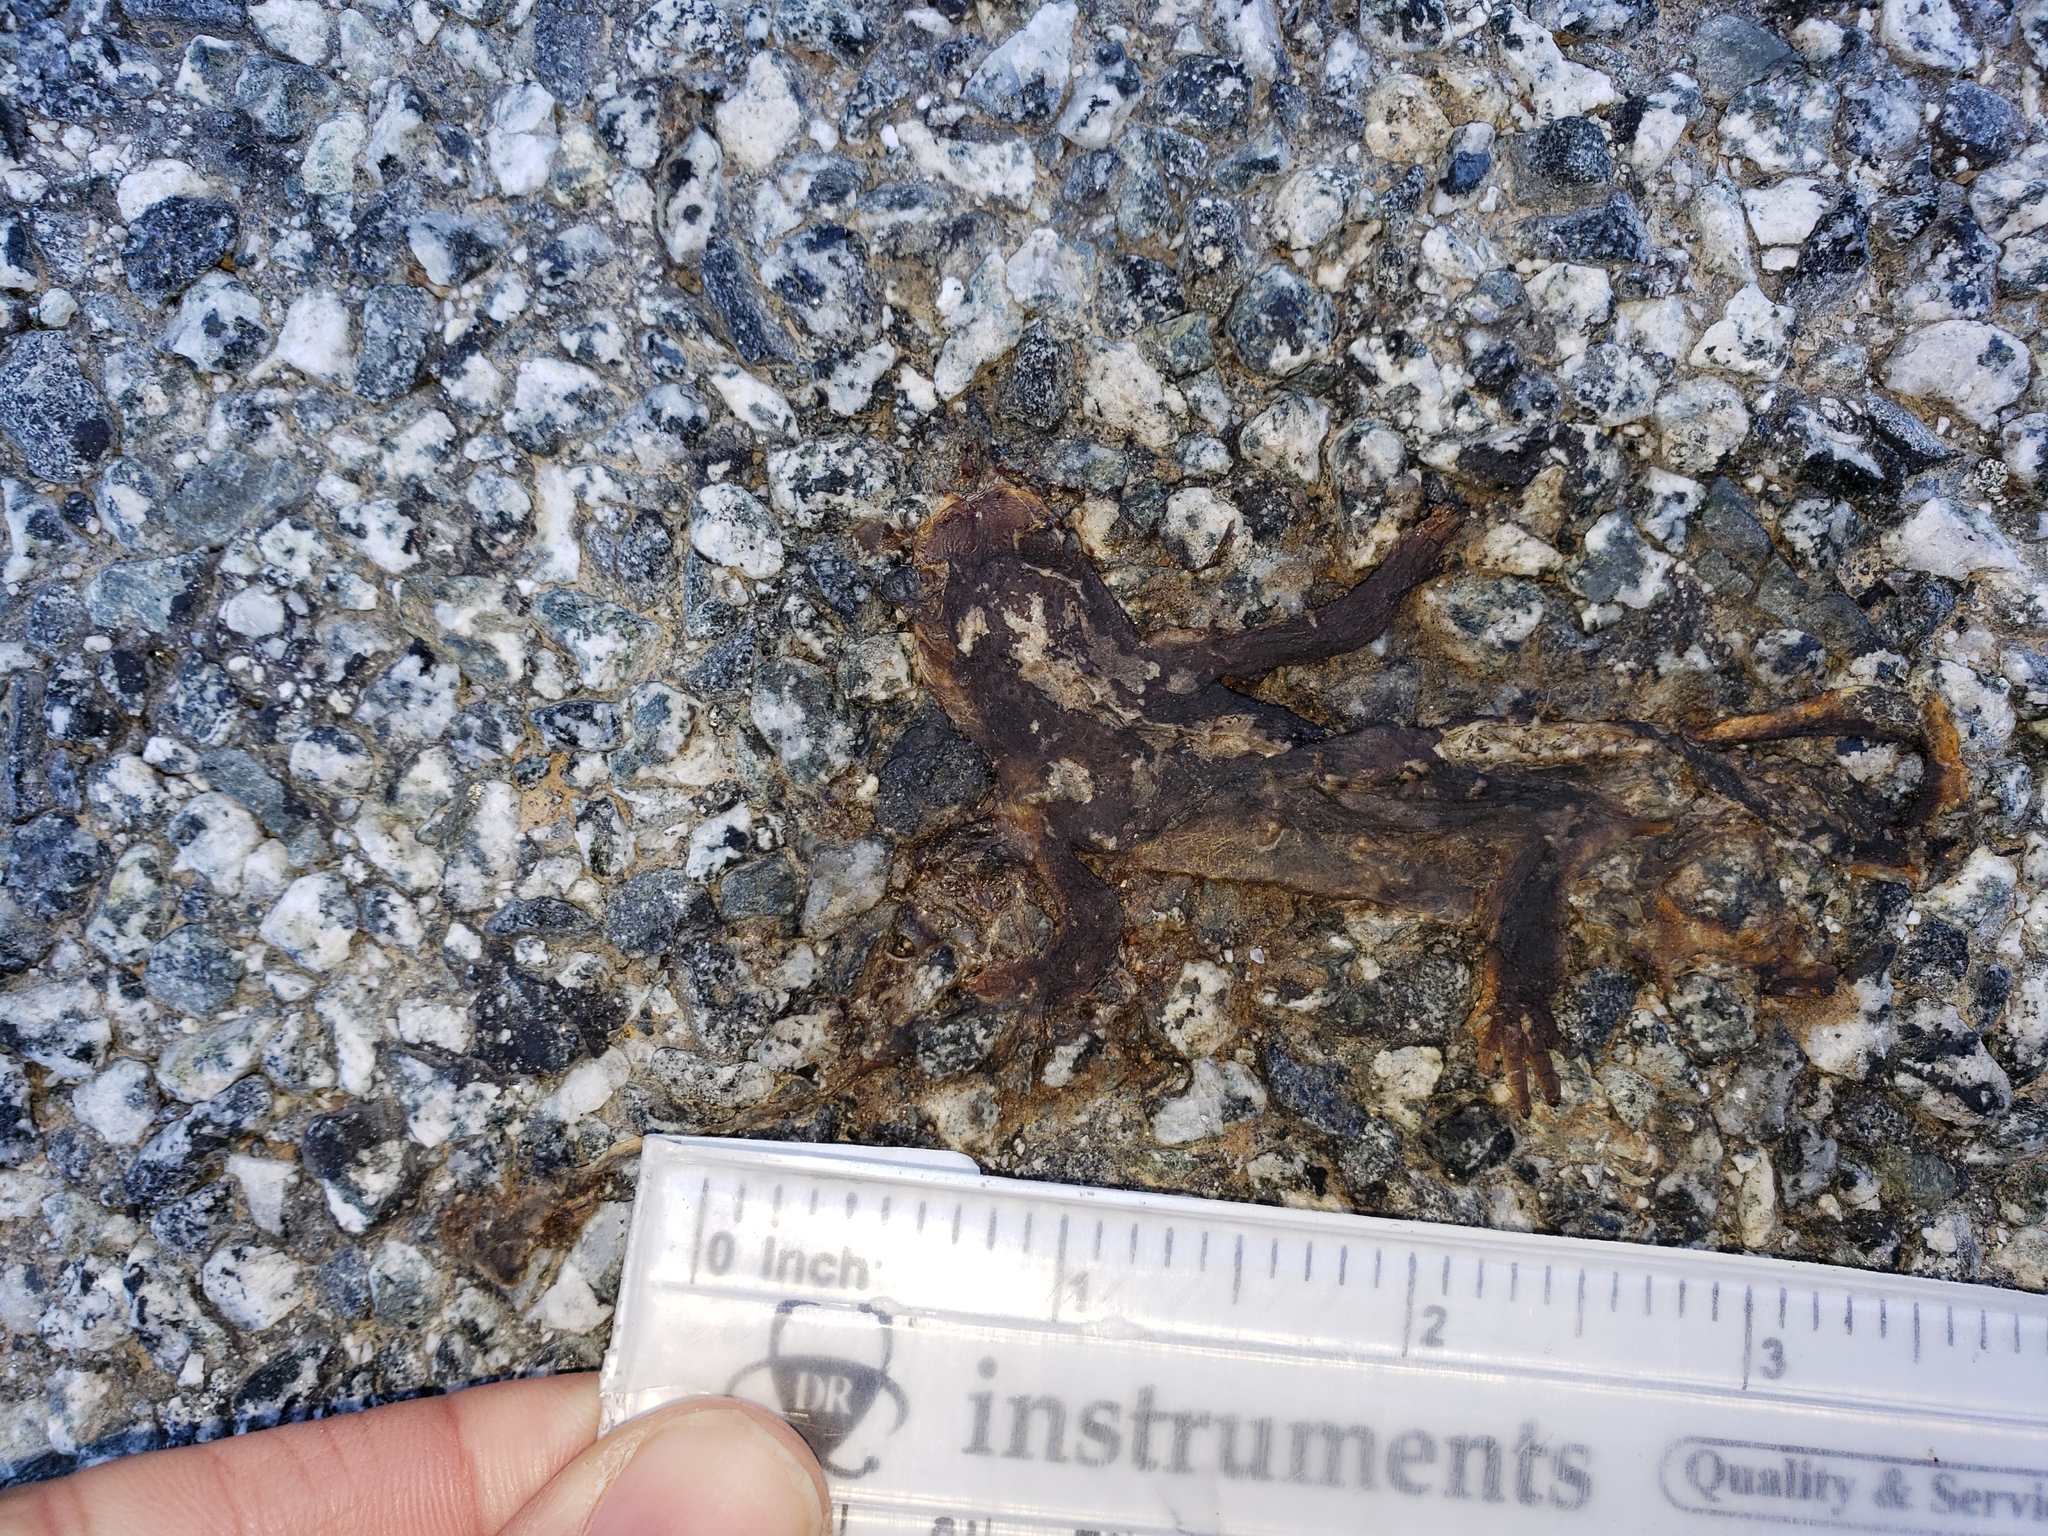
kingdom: Animalia
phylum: Chordata
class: Amphibia
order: Caudata
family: Salamandridae
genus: Taricha
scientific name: Taricha
